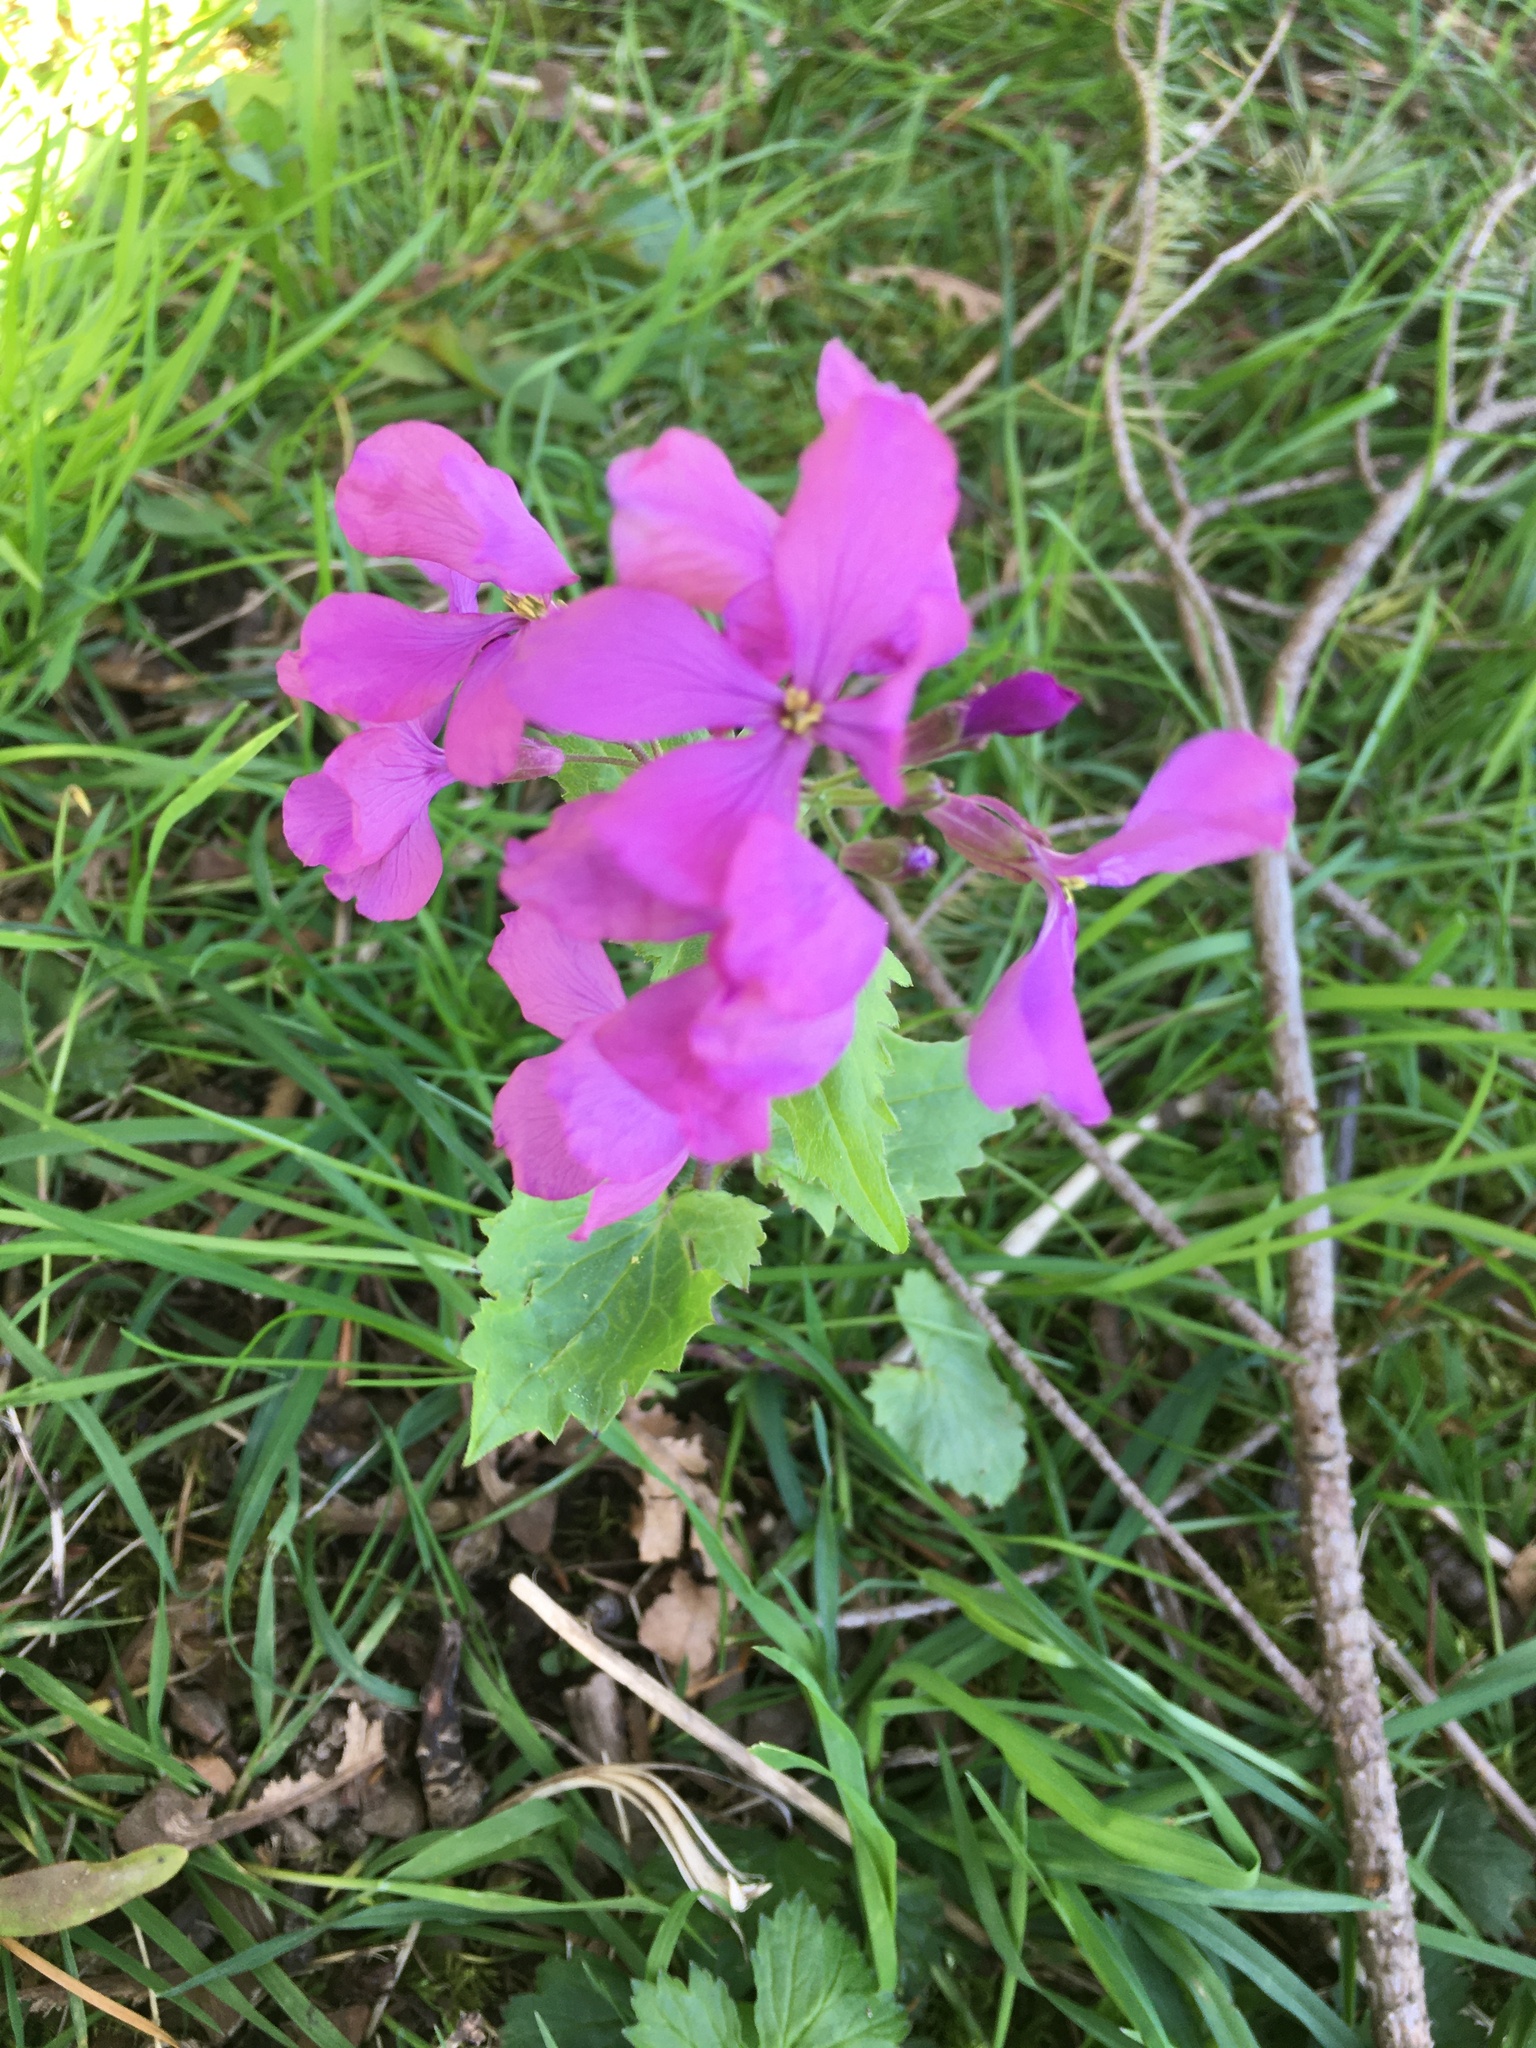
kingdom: Plantae
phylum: Tracheophyta
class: Magnoliopsida
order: Brassicales
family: Brassicaceae
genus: Lunaria
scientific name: Lunaria annua
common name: Honesty
